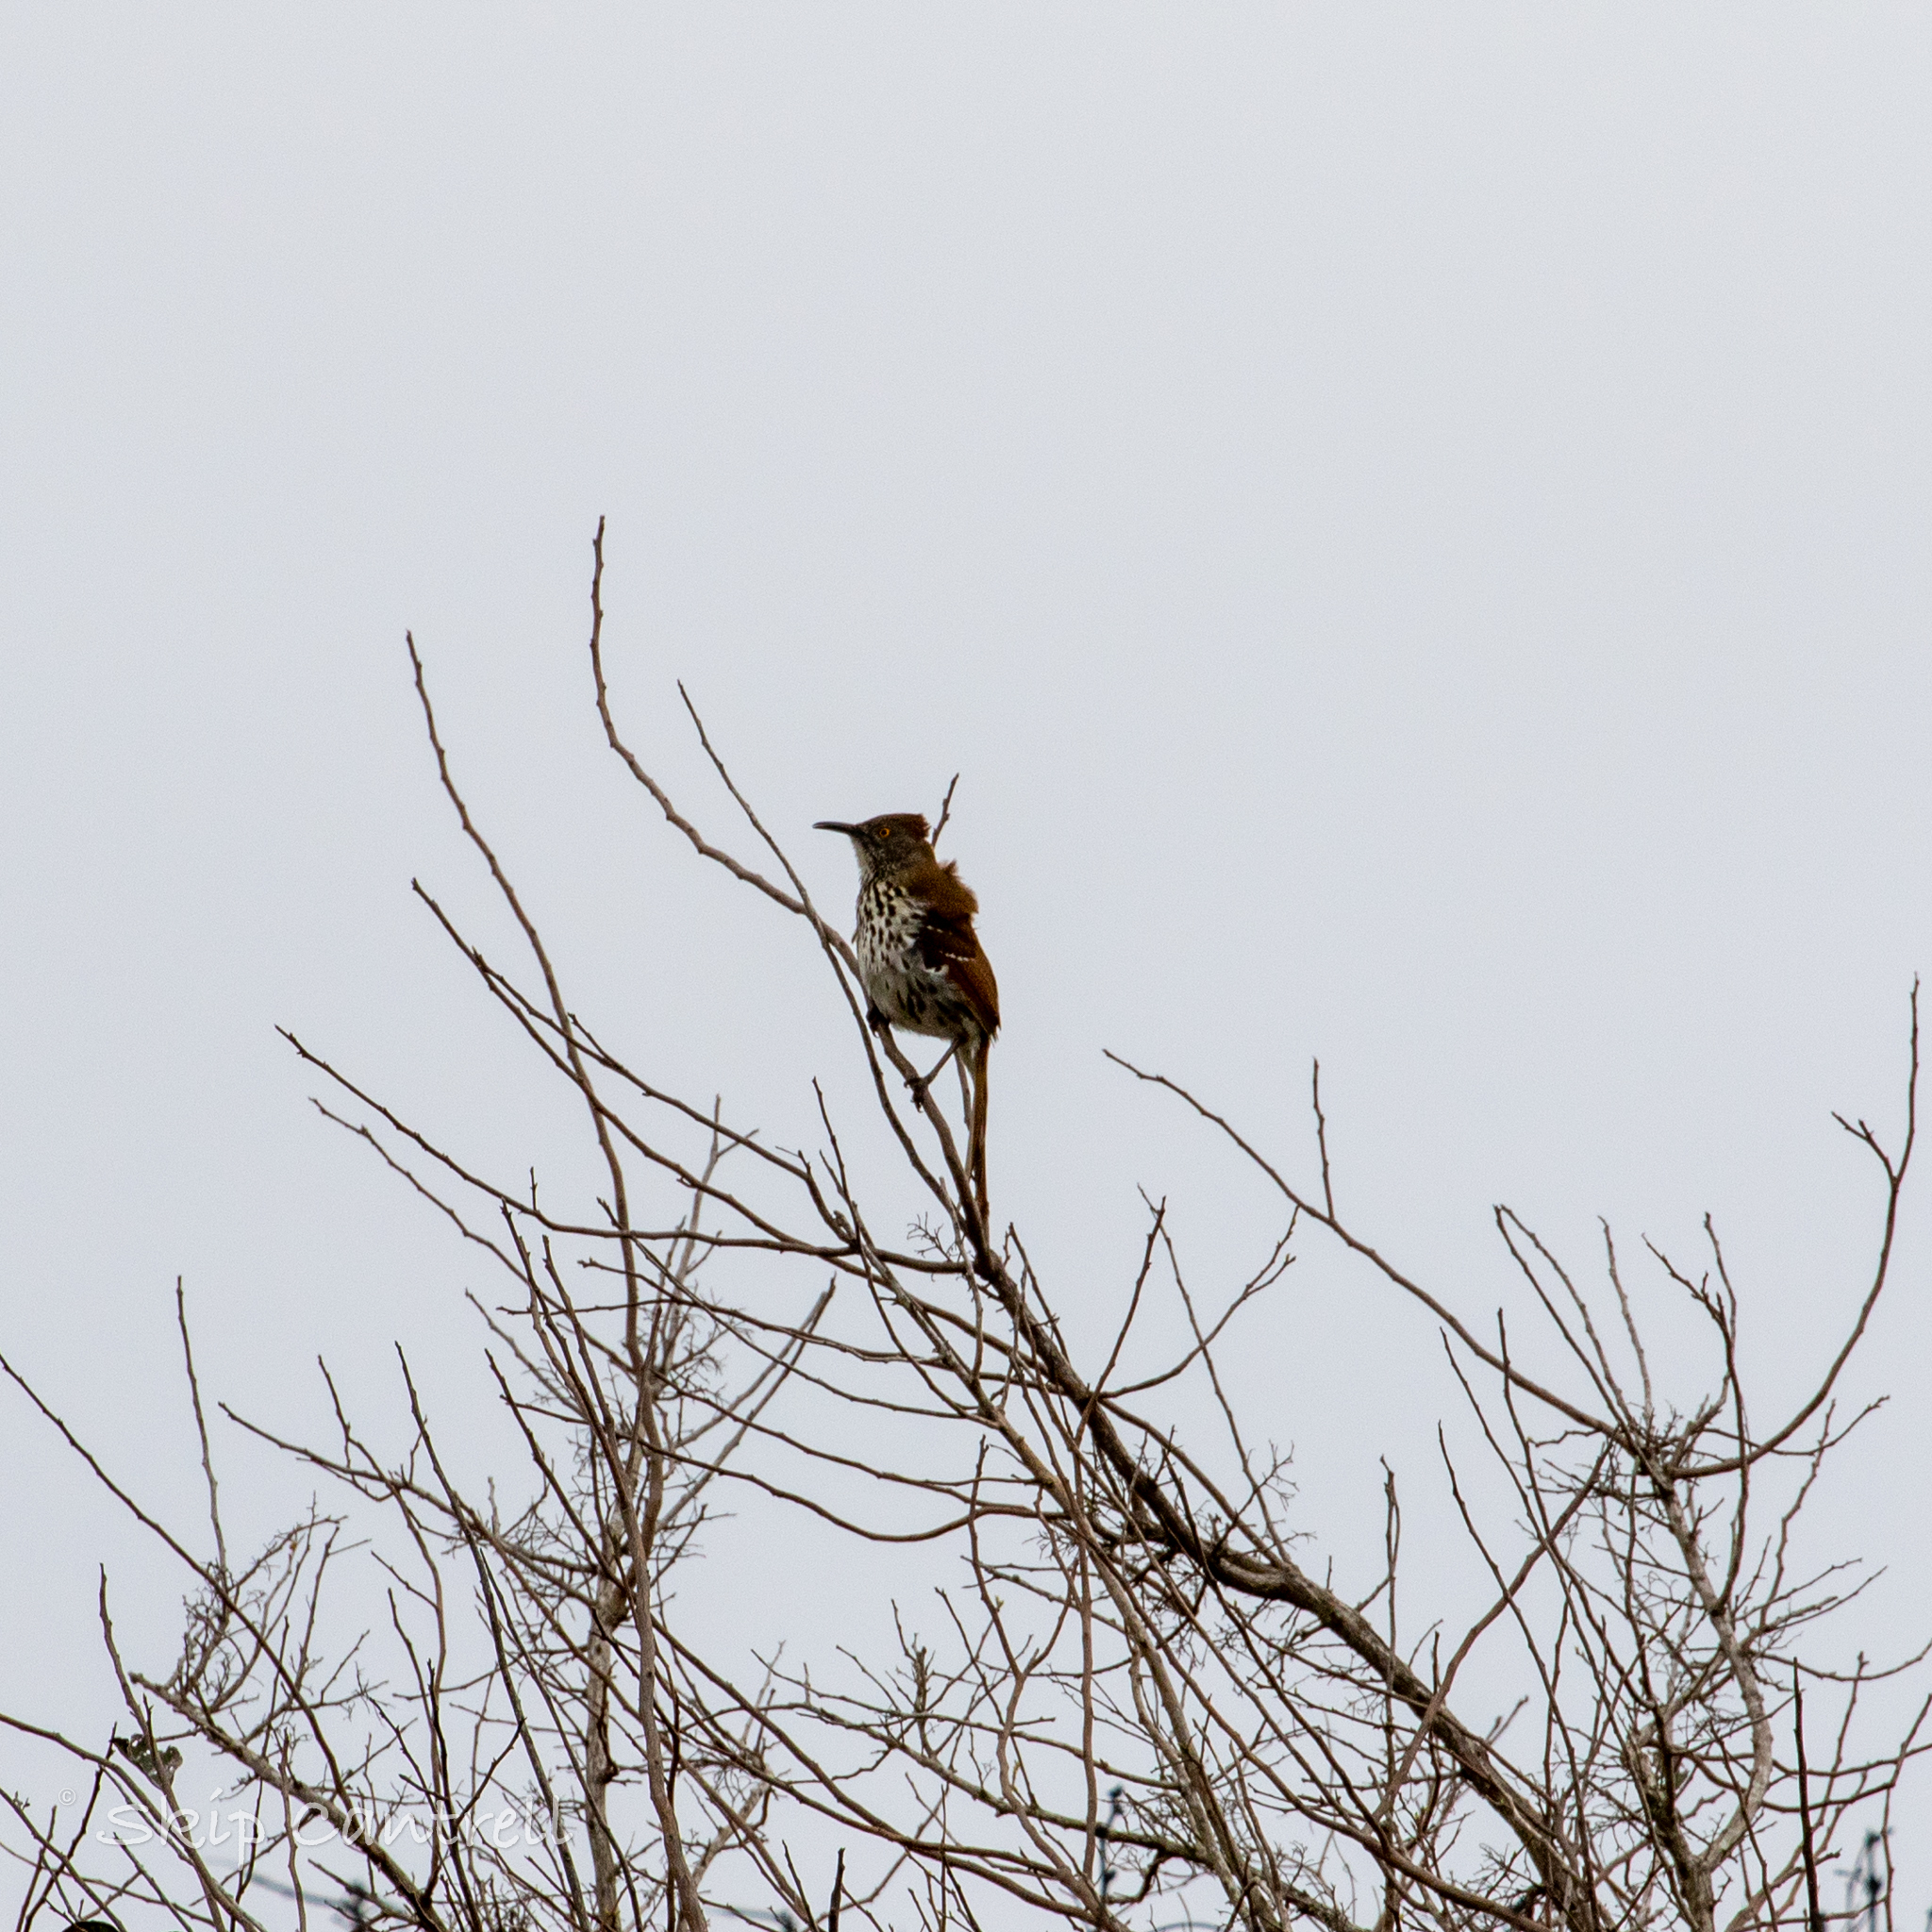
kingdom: Animalia
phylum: Chordata
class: Aves
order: Passeriformes
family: Mimidae
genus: Toxostoma
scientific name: Toxostoma longirostre
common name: Long-billed thrasher
